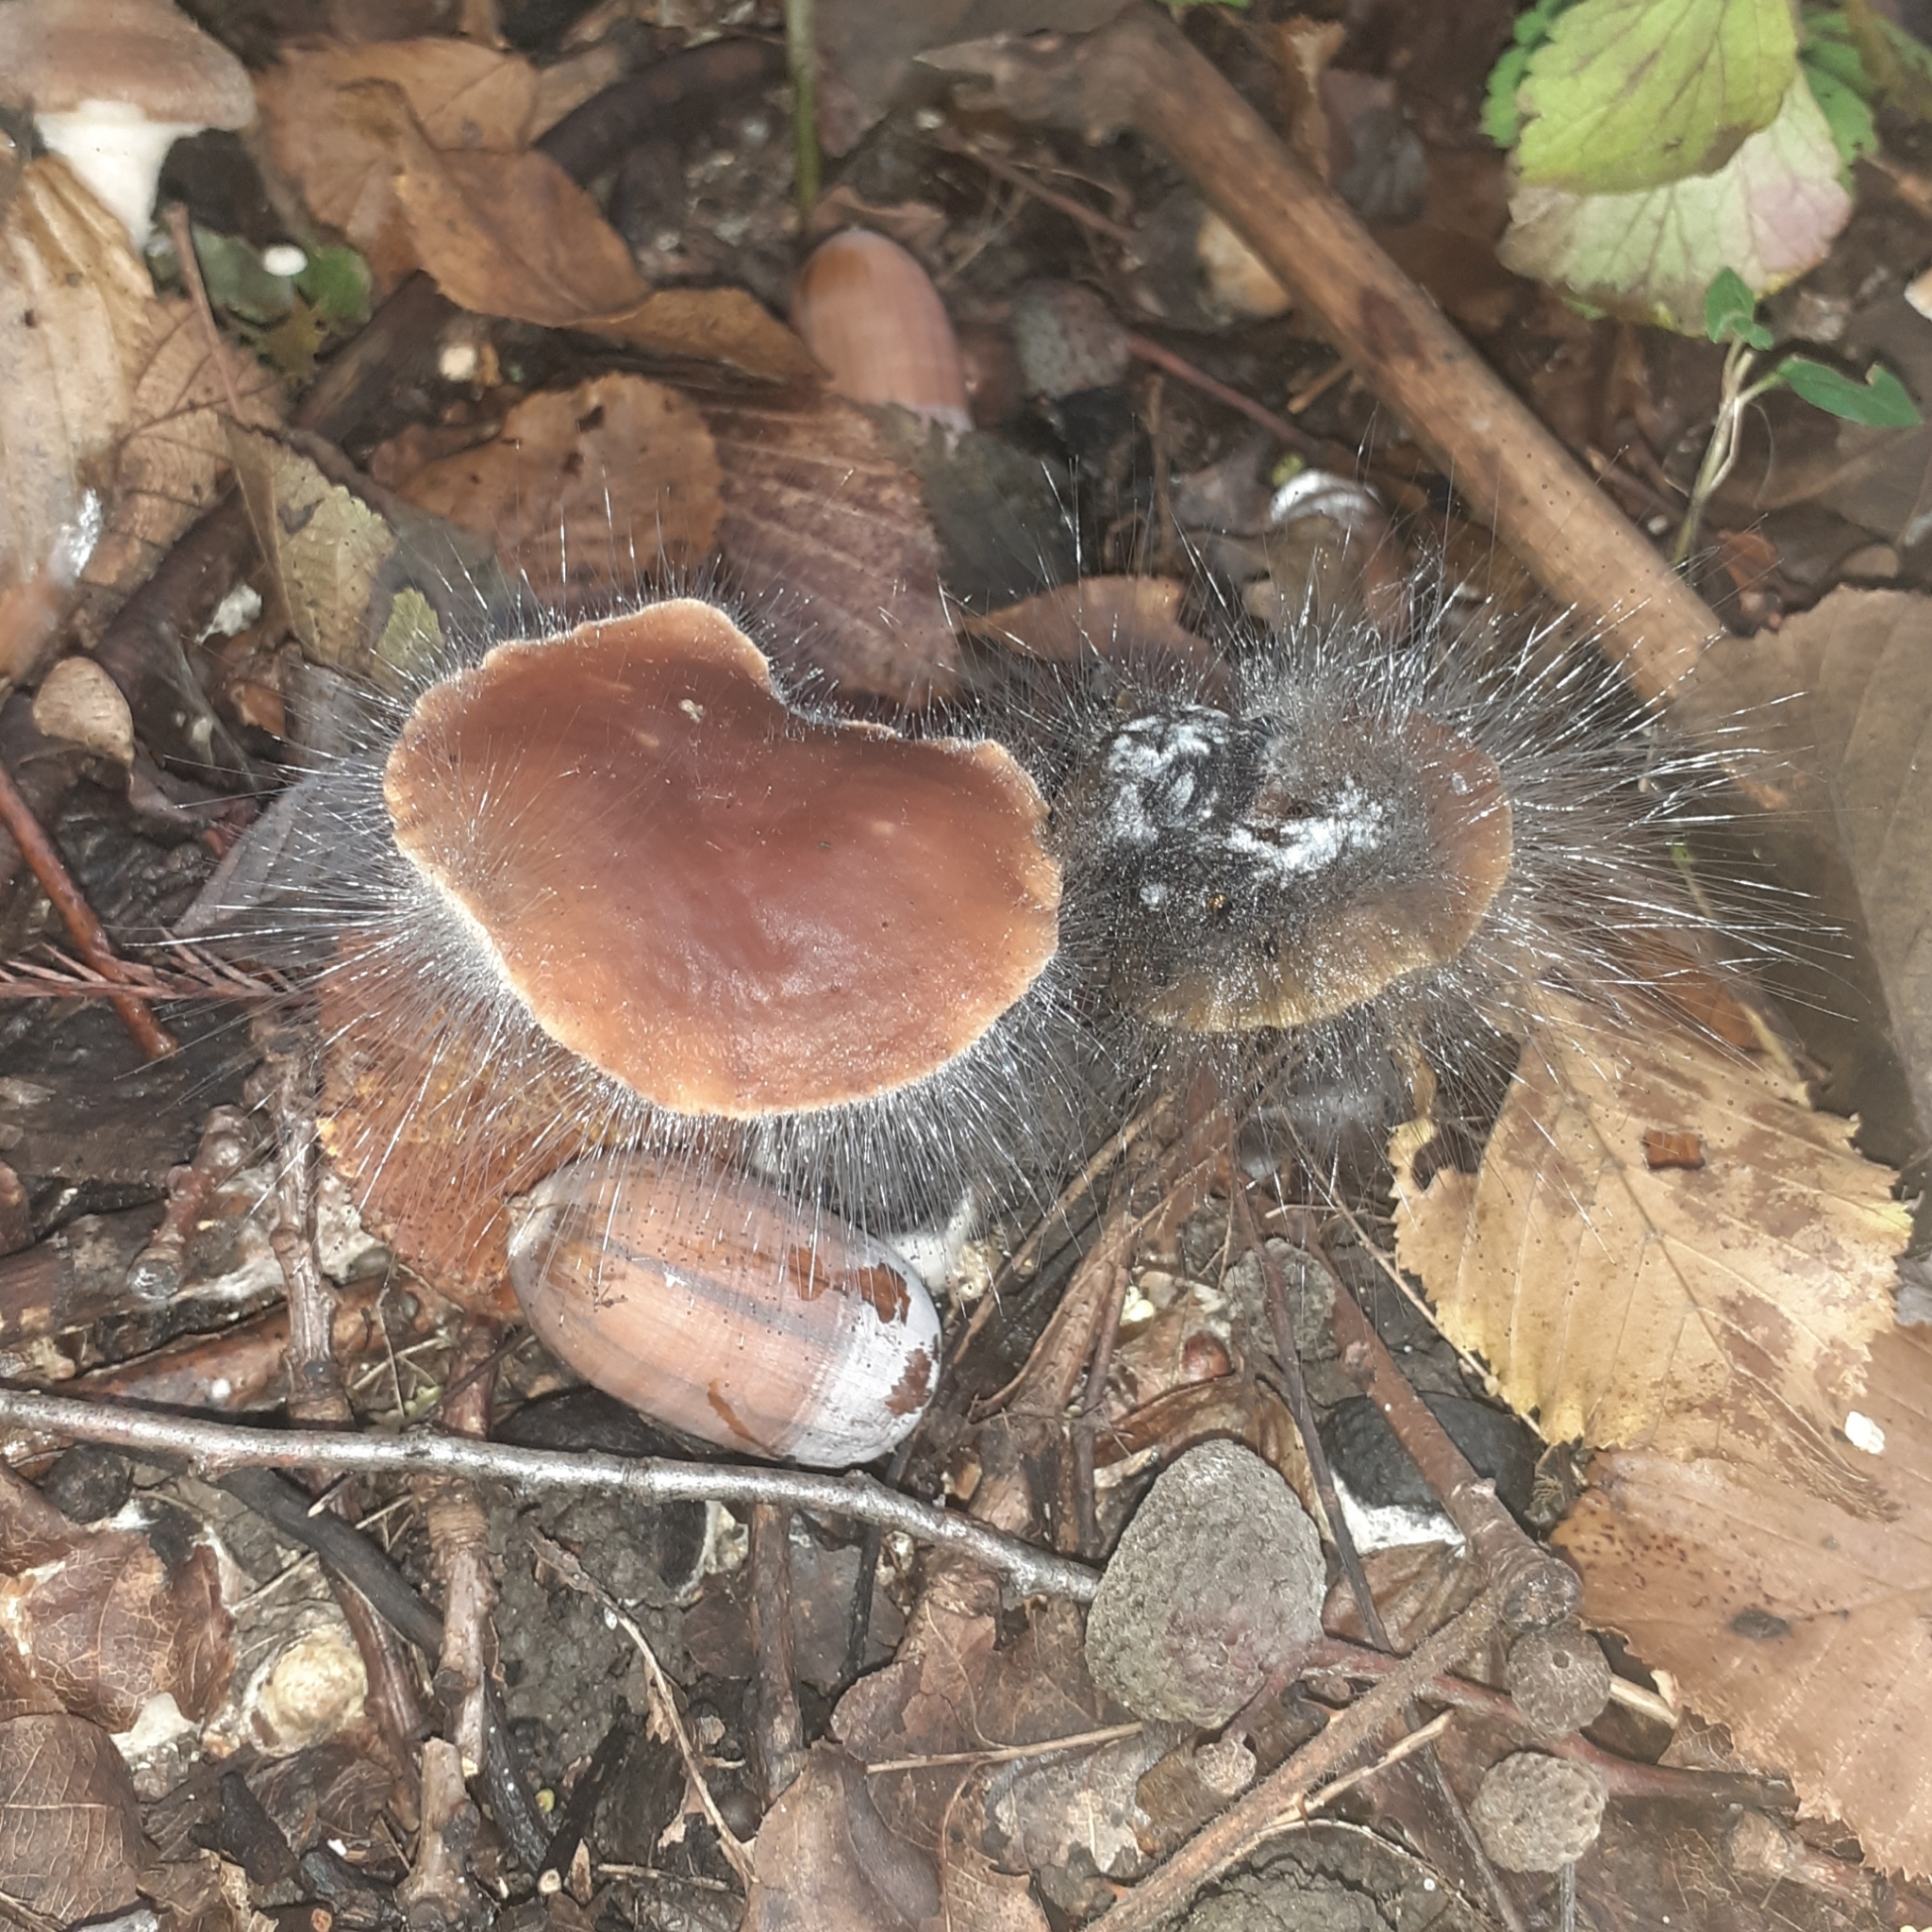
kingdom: Fungi
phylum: Mucoromycota
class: Mucoromycetes
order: Mucorales
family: Phycomycetaceae
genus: Spinellus
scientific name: Spinellus fusiger
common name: Bonnet mould
